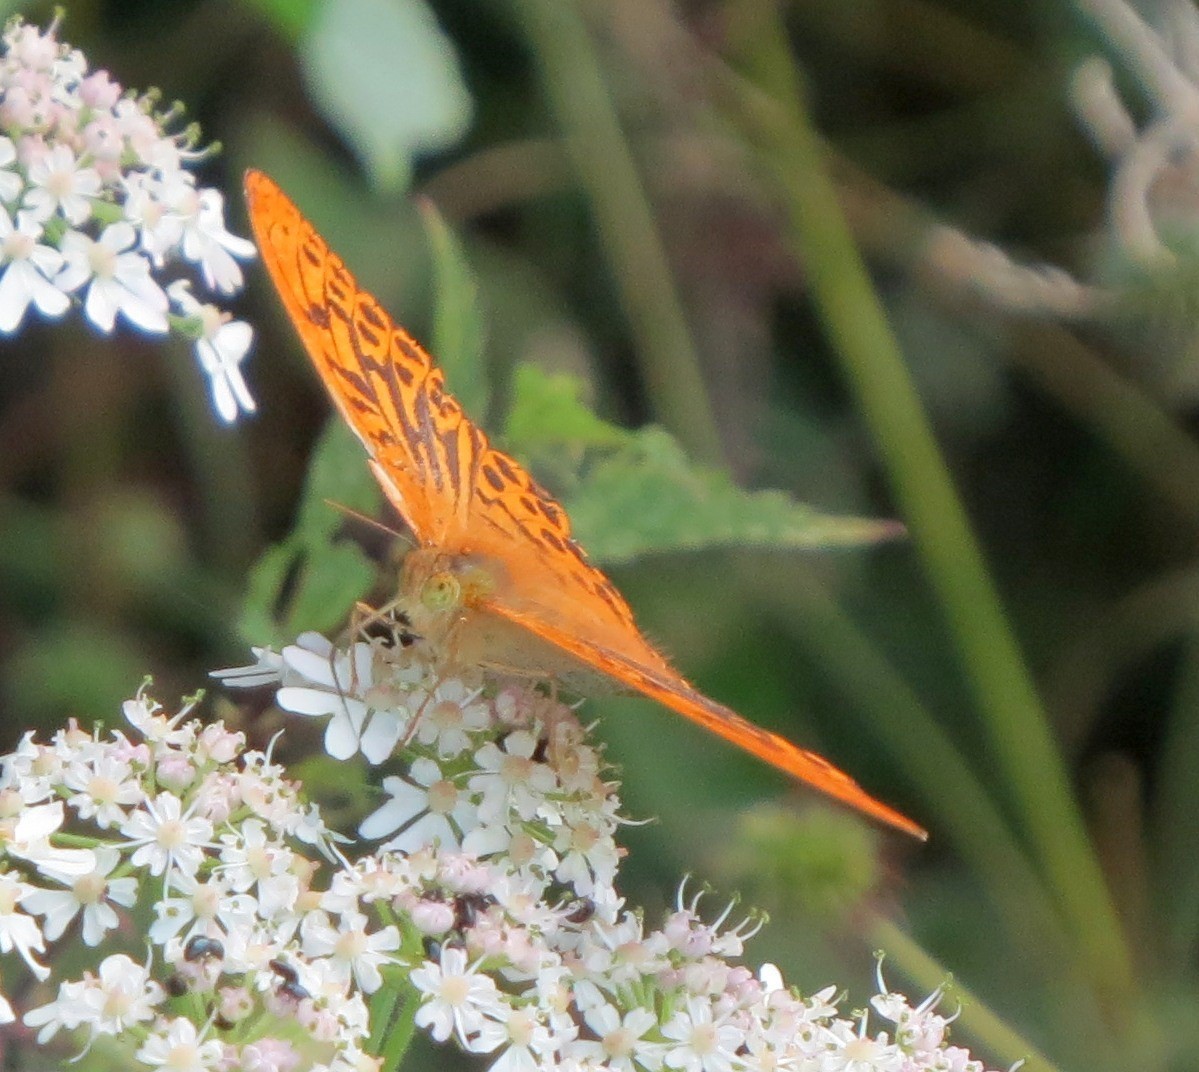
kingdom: Animalia
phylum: Arthropoda
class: Insecta
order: Lepidoptera
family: Nymphalidae
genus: Argynnis
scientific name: Argynnis paphia
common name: Silver-washed fritillary
